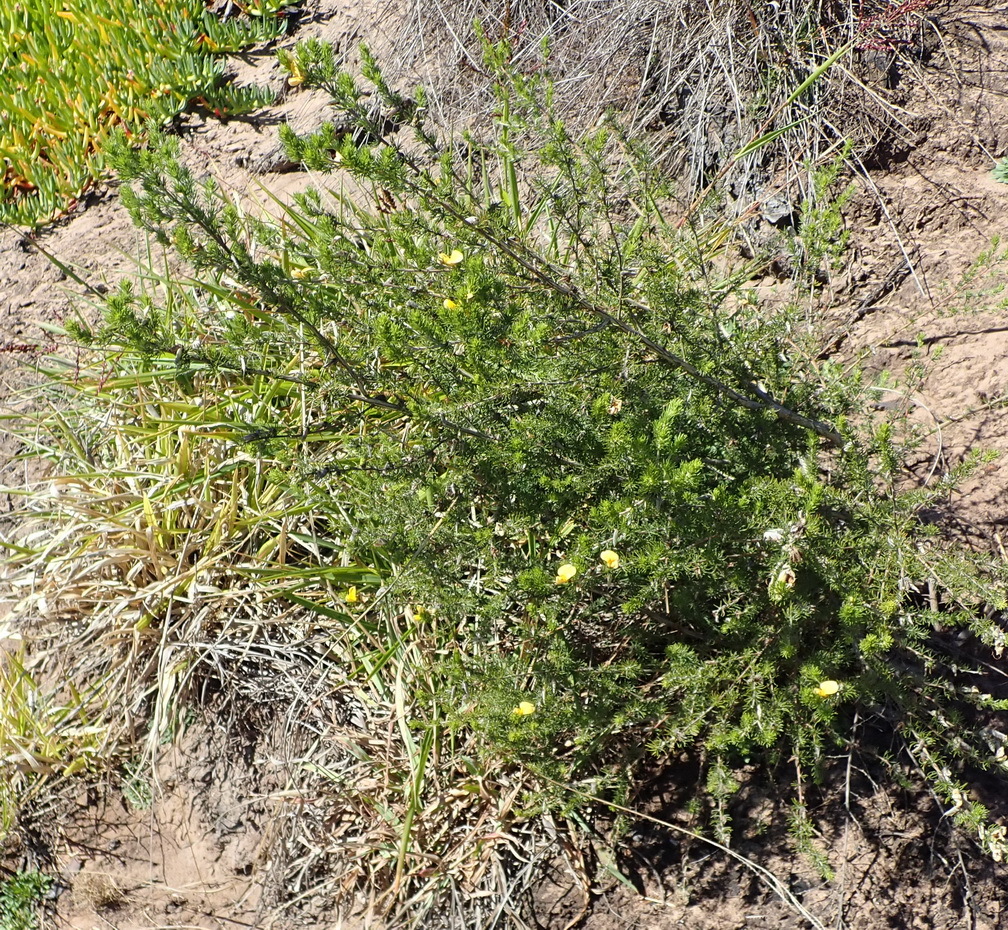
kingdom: Plantae
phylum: Tracheophyta
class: Magnoliopsida
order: Fabales
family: Fabaceae
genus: Aspalathus
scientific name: Aspalathus kougaensis
